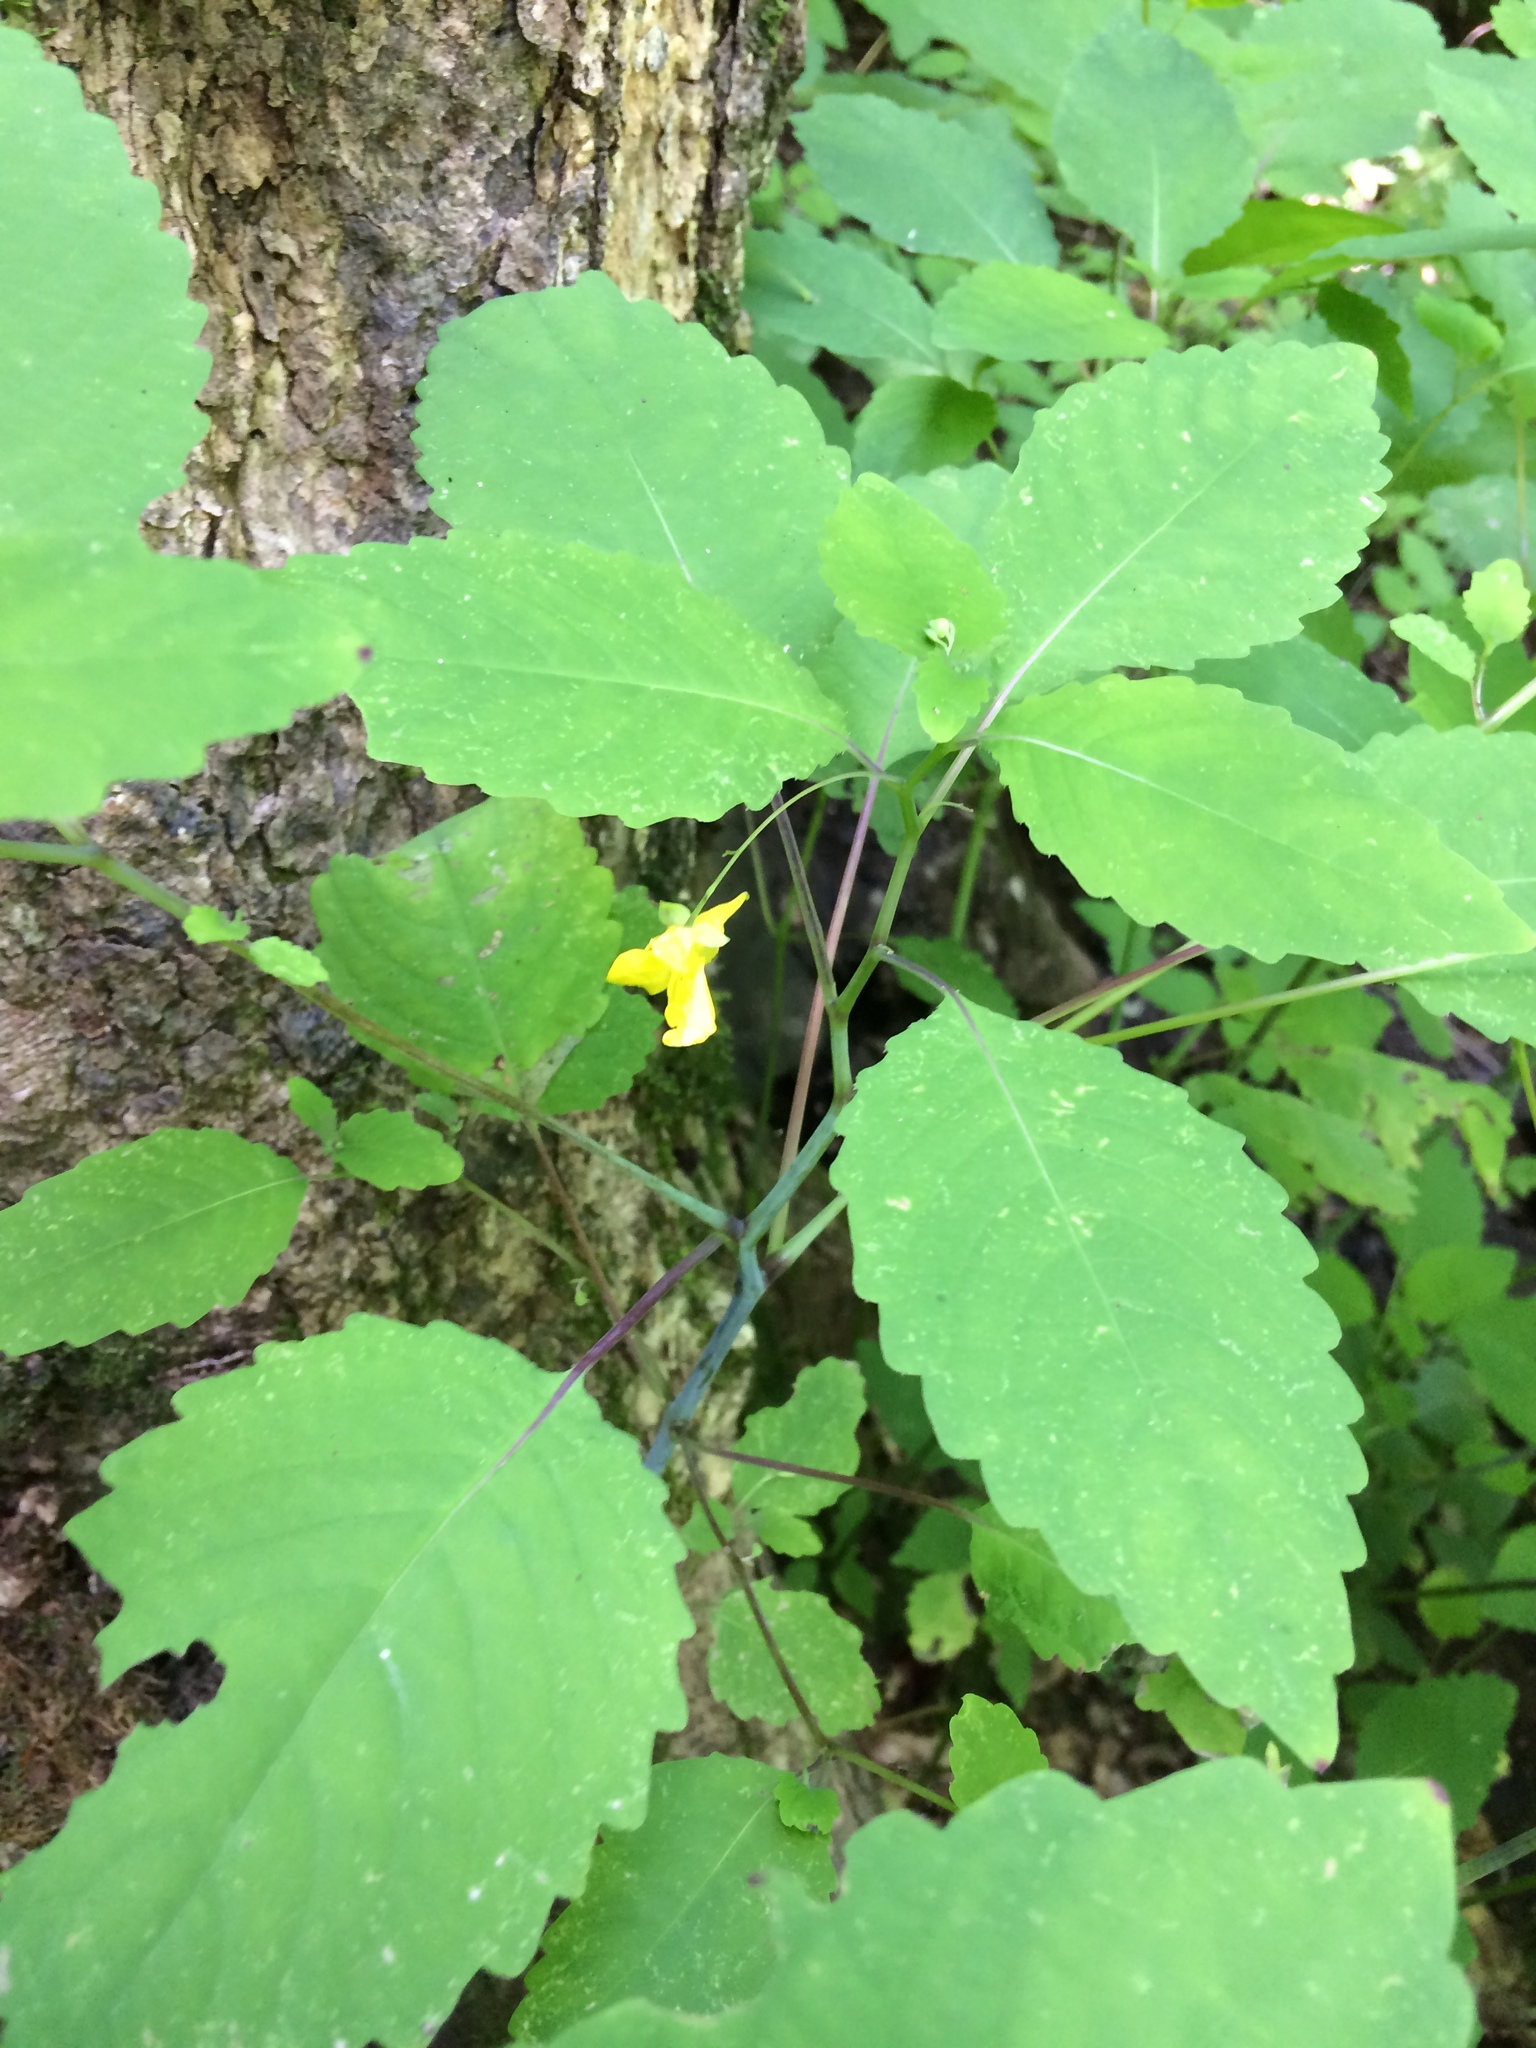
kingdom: Plantae
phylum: Tracheophyta
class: Magnoliopsida
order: Ericales
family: Balsaminaceae
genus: Impatiens
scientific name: Impatiens pallida
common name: Pale snapweed
